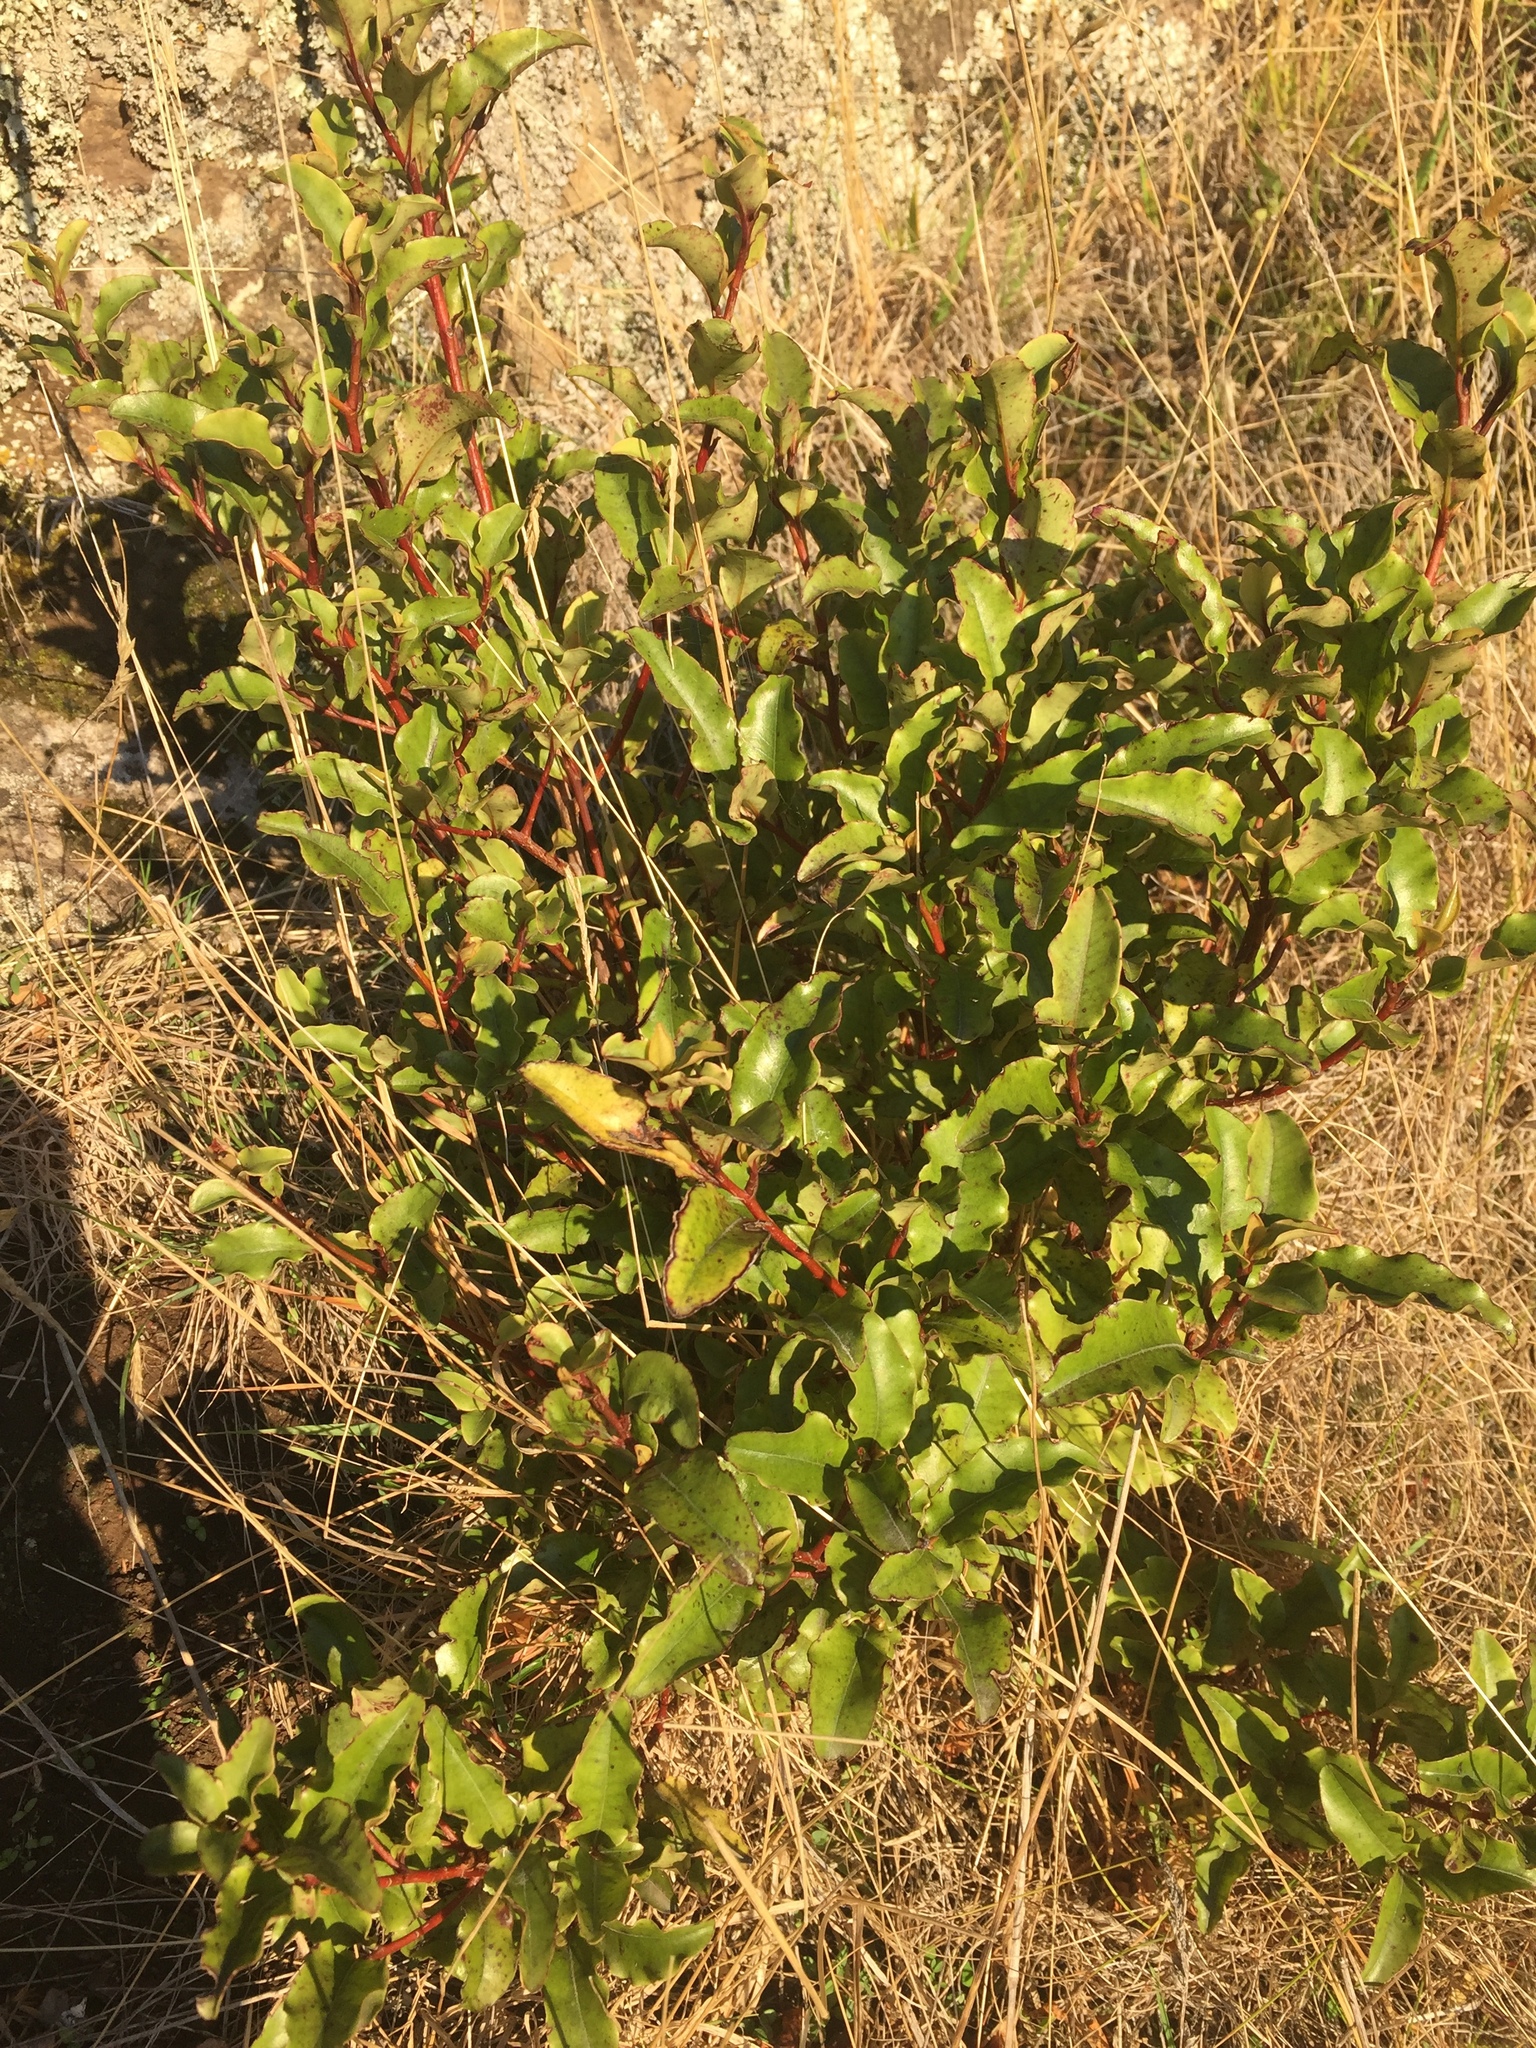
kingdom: Plantae
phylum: Tracheophyta
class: Magnoliopsida
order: Ericales
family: Primulaceae
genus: Myrsine
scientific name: Myrsine australis
